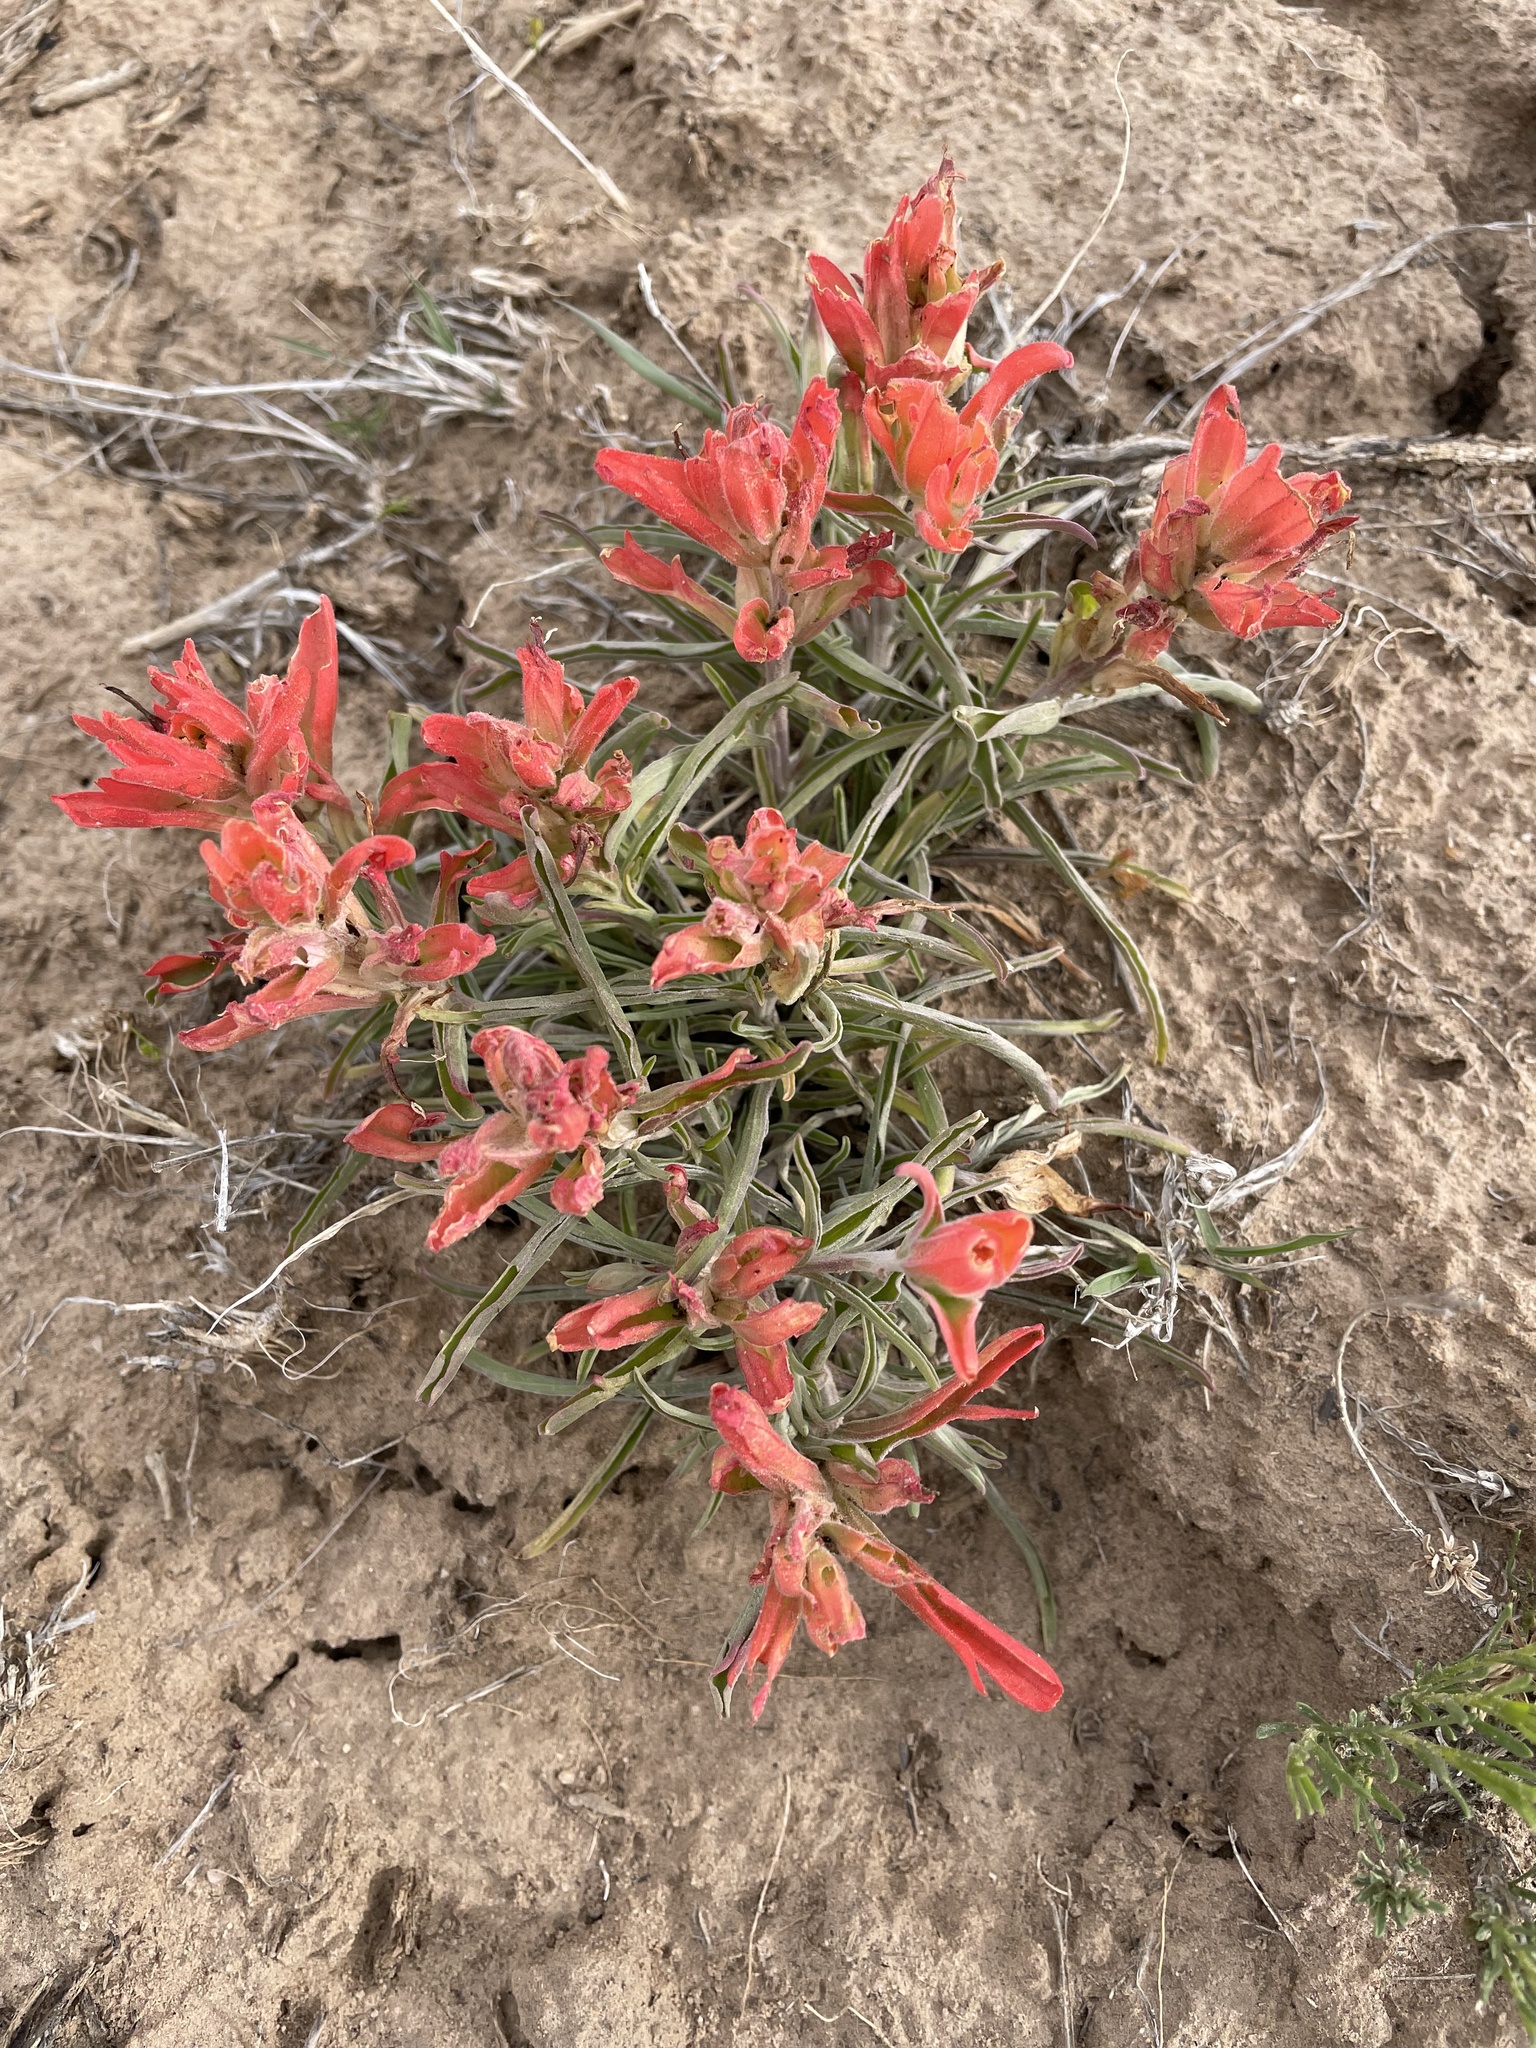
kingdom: Plantae
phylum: Tracheophyta
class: Magnoliopsida
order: Lamiales
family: Orobanchaceae
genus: Castilleja
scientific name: Castilleja integra
